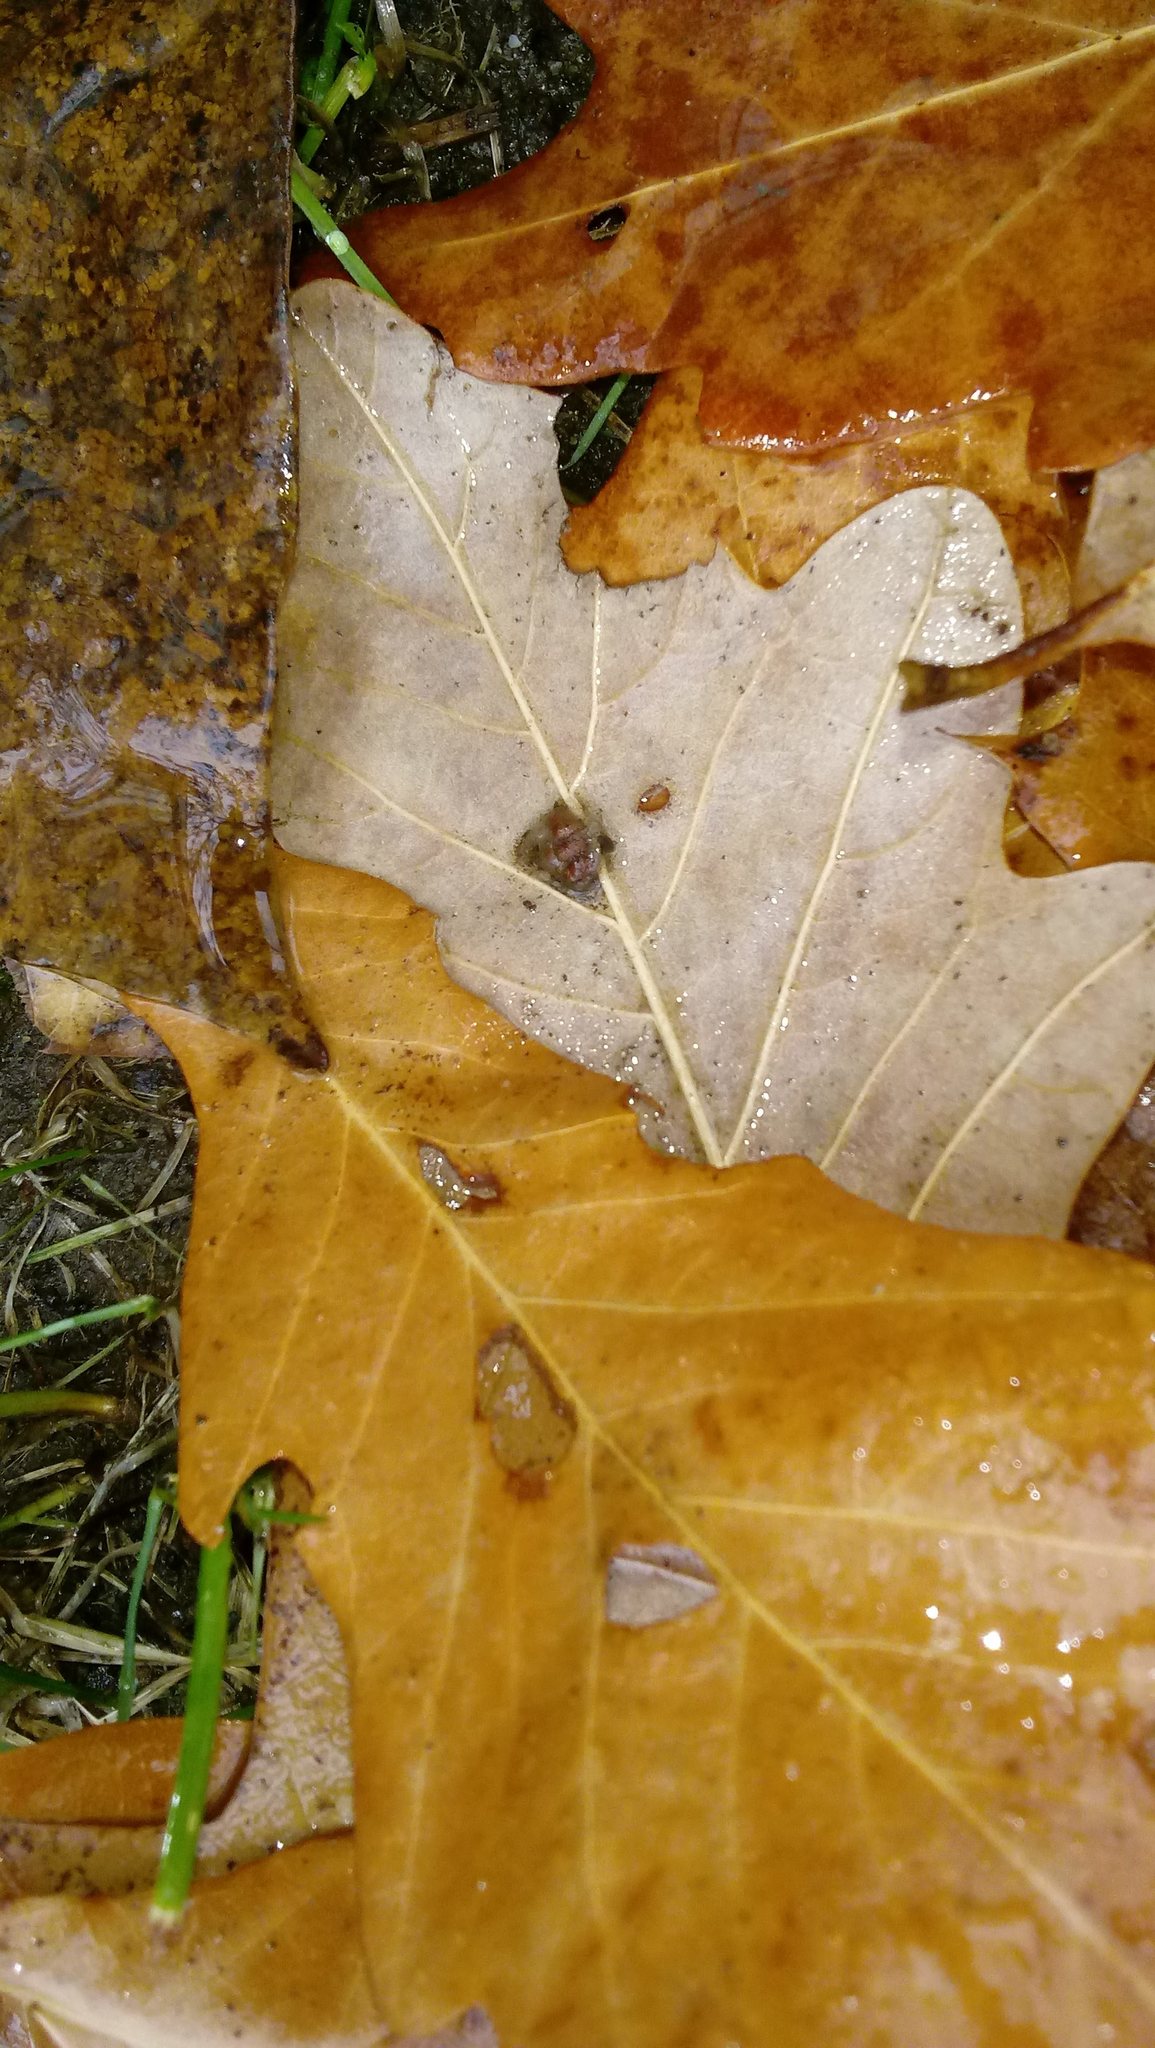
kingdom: Animalia
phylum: Arthropoda
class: Insecta
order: Hymenoptera
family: Cynipidae
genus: Andricus
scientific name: Andricus Druon ignotum
